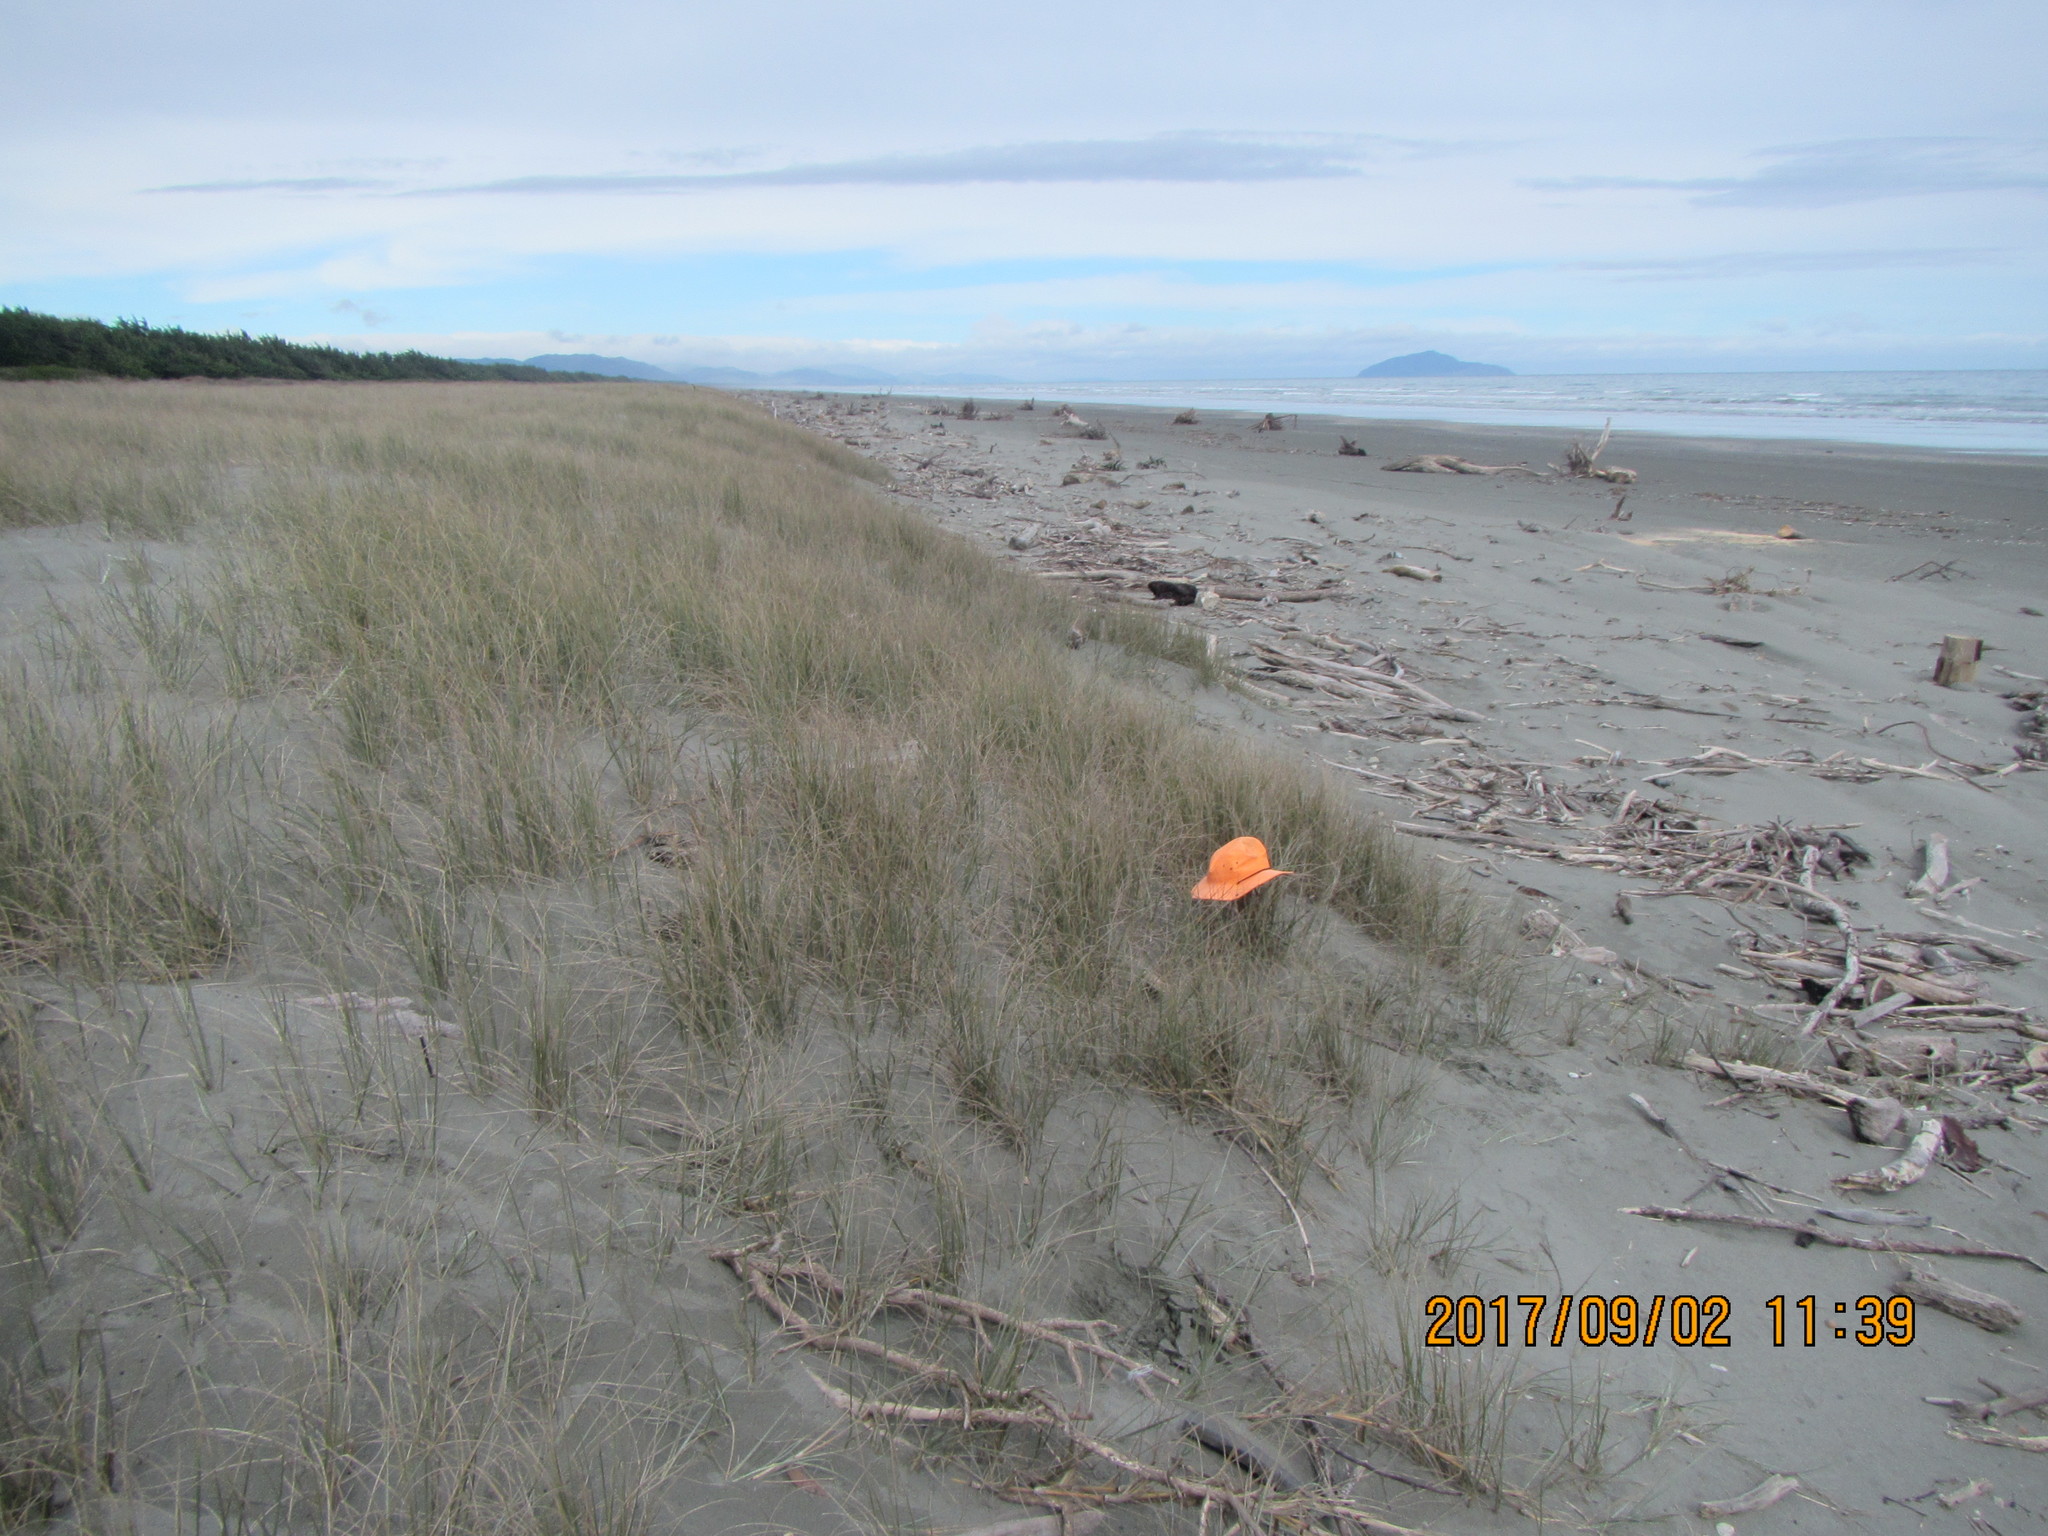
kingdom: Animalia
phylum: Arthropoda
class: Arachnida
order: Araneae
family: Theridiidae
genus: Steatoda
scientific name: Steatoda capensis
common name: Cobweb weaver
